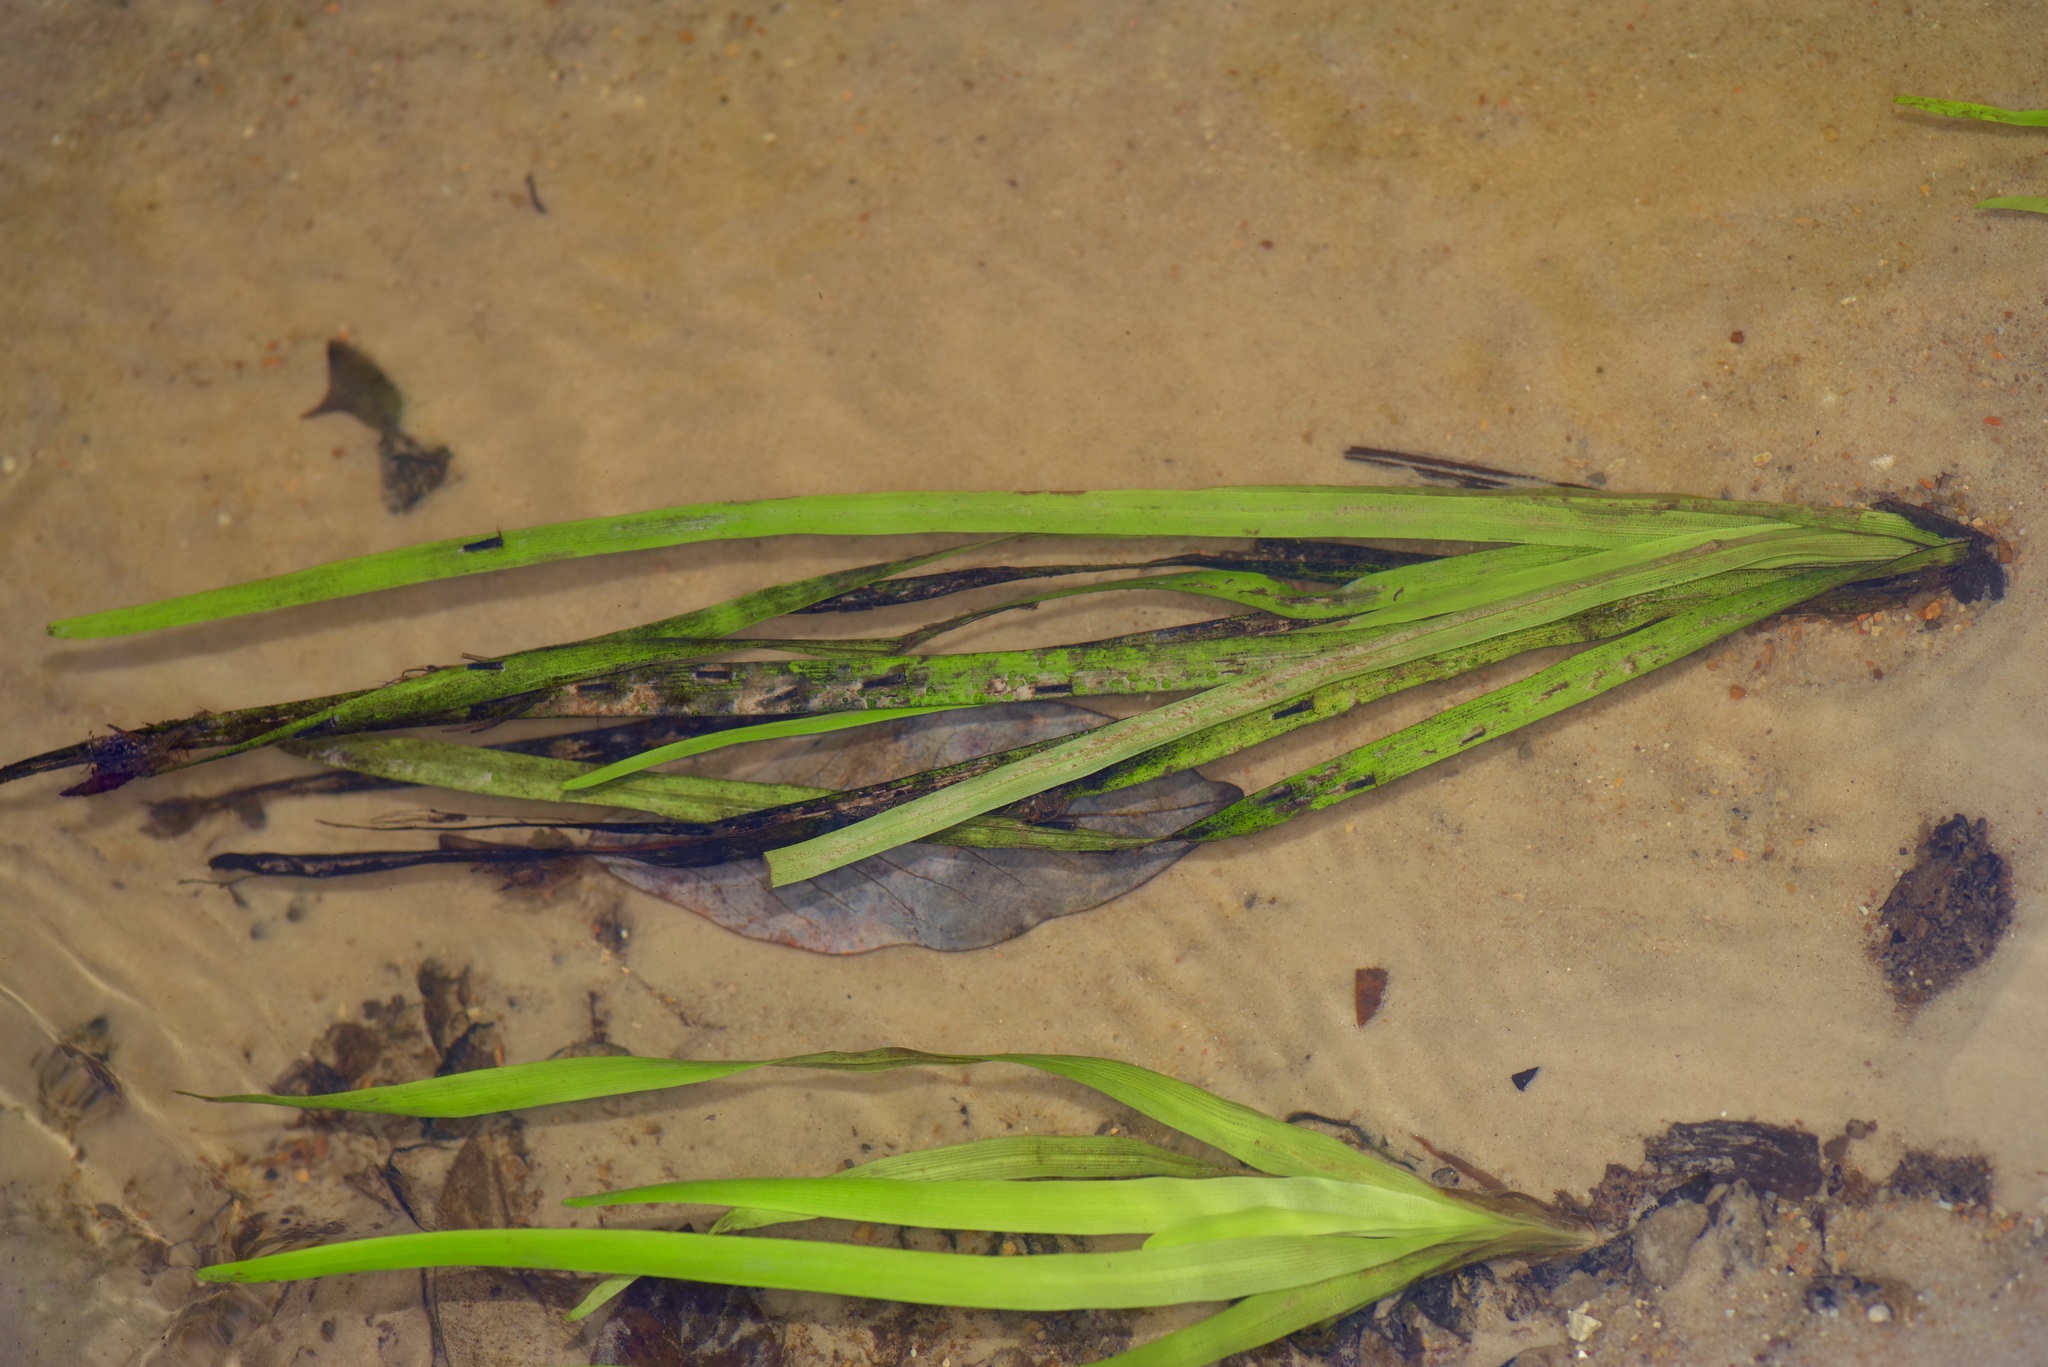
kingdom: Plantae
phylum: Tracheophyta
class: Liliopsida
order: Poales
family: Typhaceae
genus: Sparganium
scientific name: Sparganium americanum
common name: American burreed
